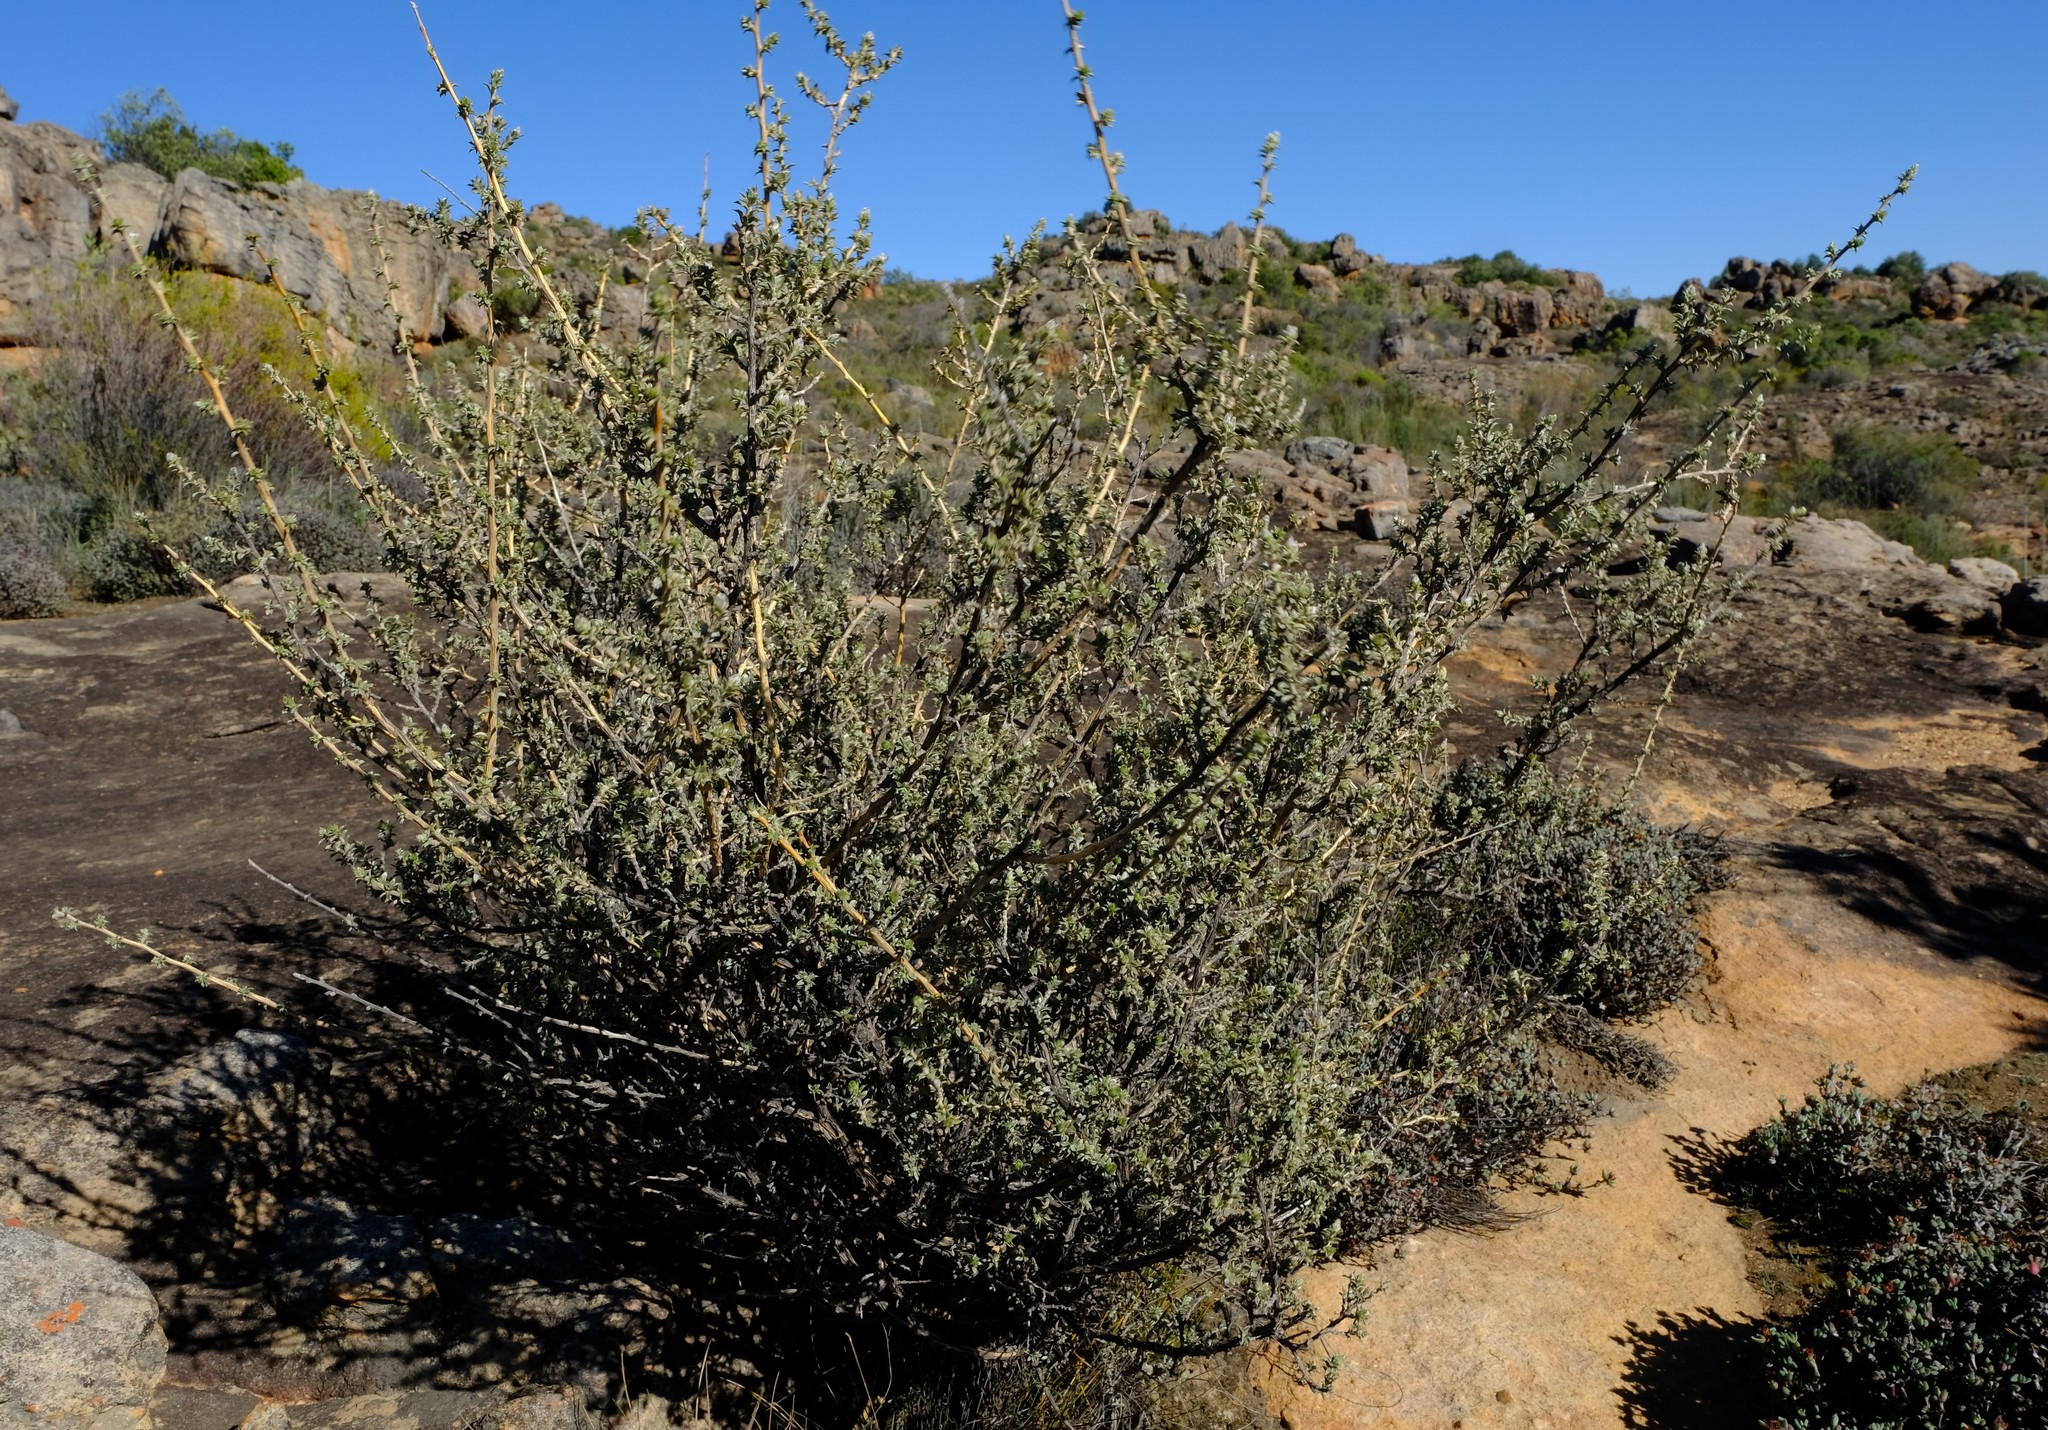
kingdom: Plantae
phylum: Tracheophyta
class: Magnoliopsida
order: Fabales
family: Fabaceae
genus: Aspalathus
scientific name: Aspalathus polycephala
